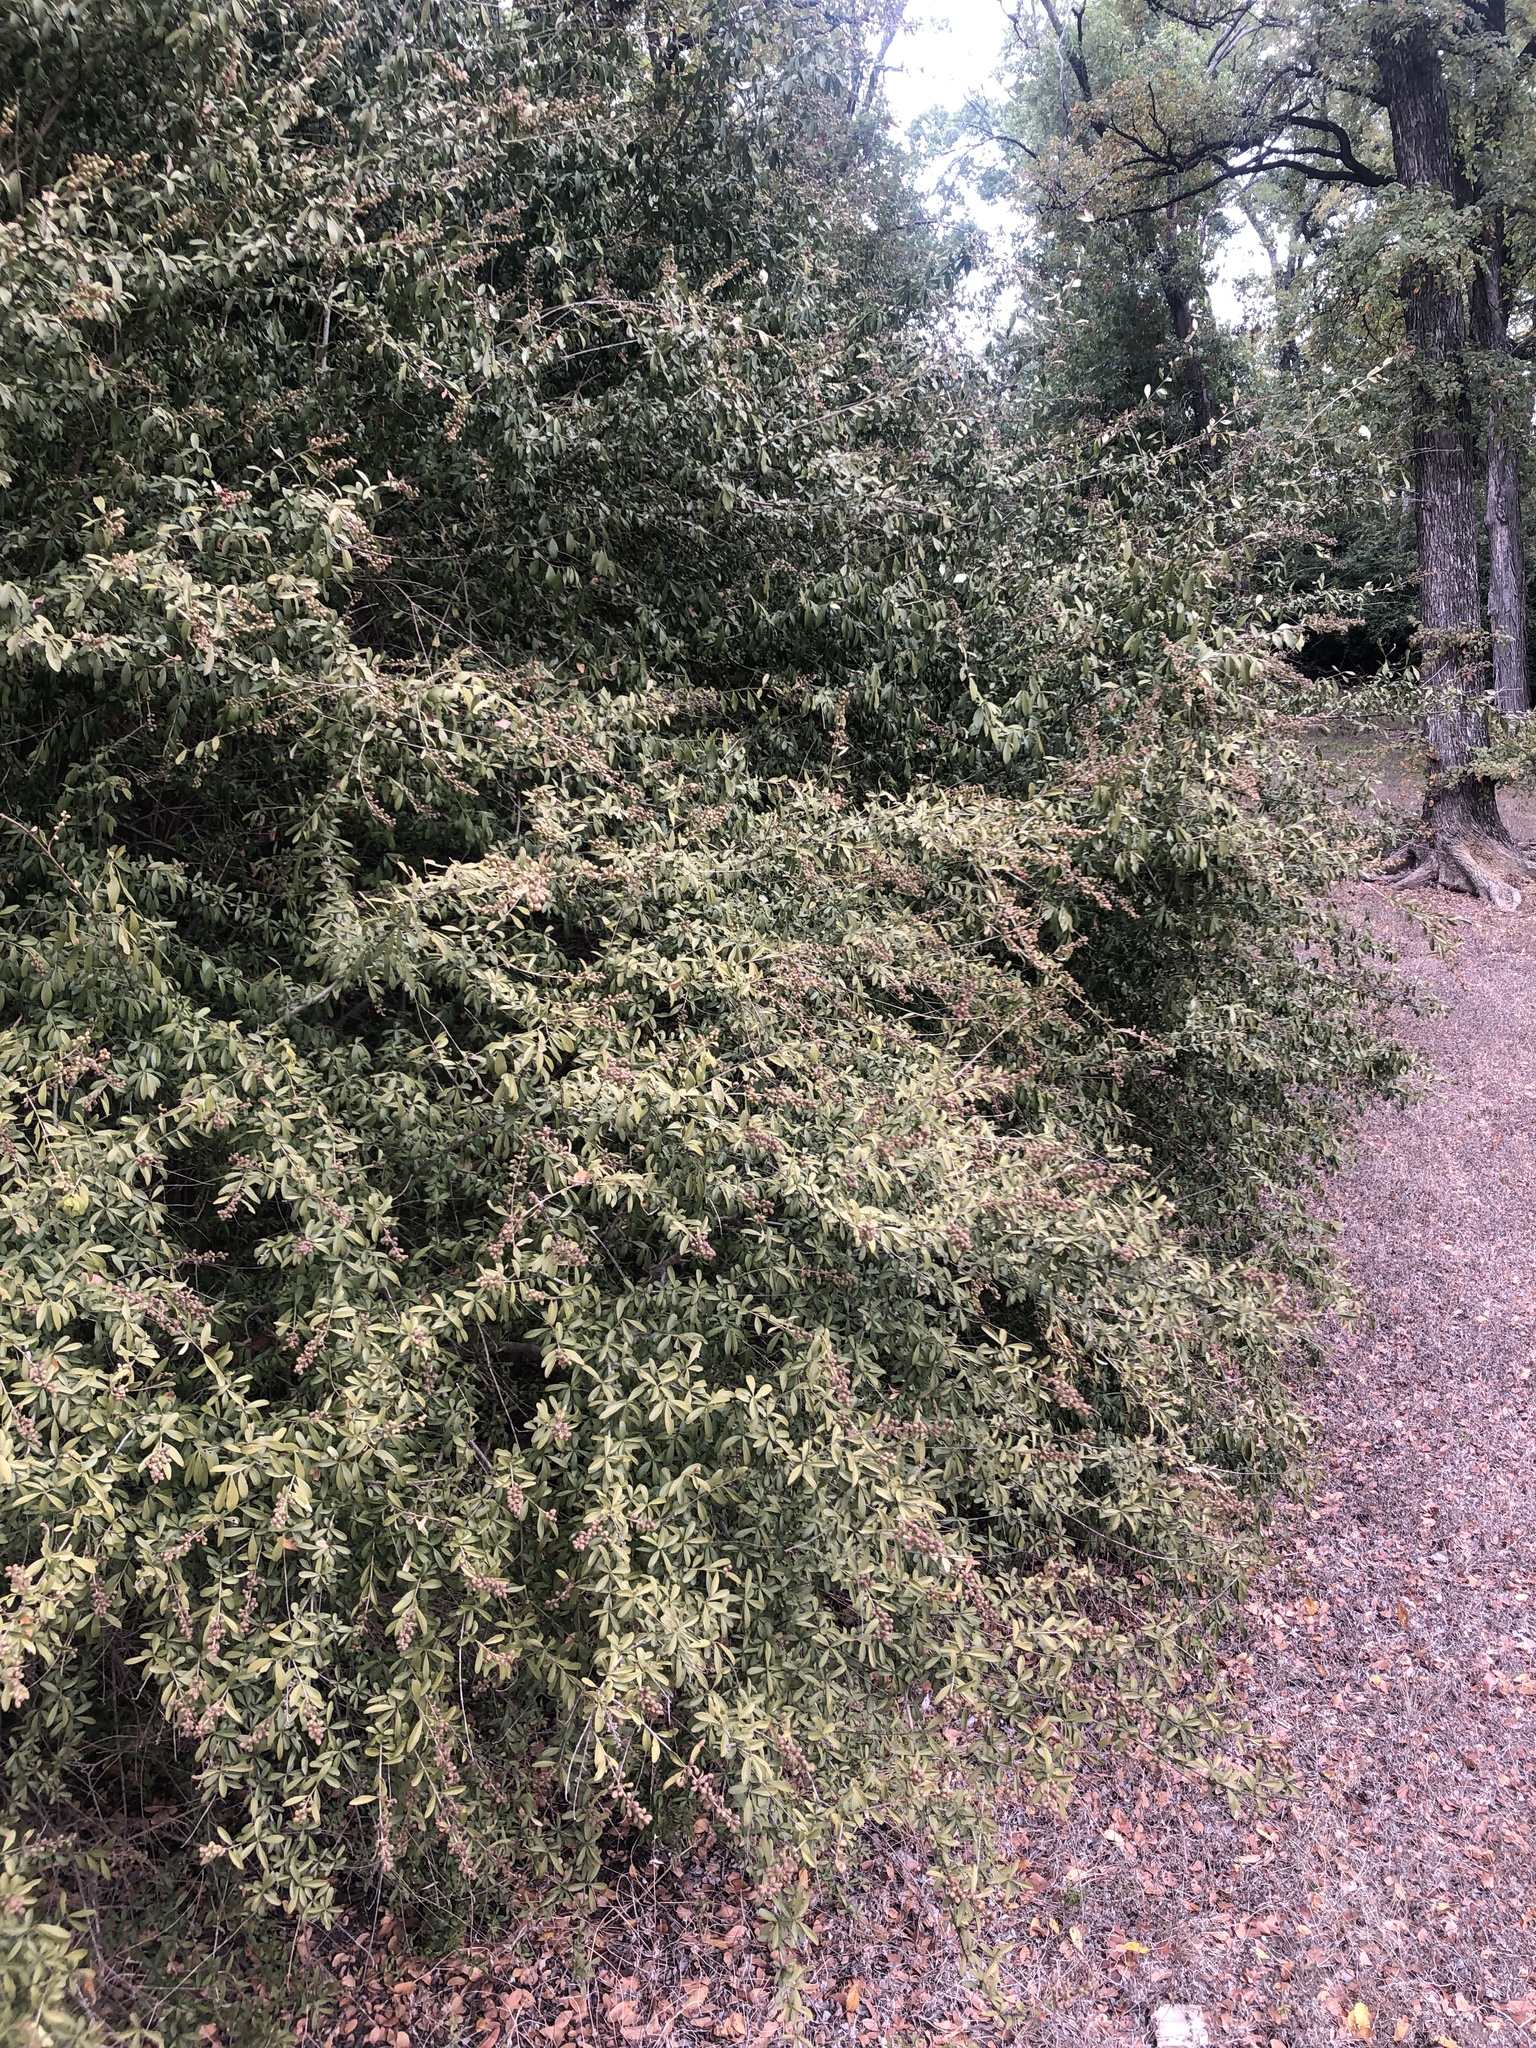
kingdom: Plantae
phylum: Tracheophyta
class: Magnoliopsida
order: Lamiales
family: Oleaceae
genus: Ligustrum
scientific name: Ligustrum quihoui
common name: Waxyleaf privet
